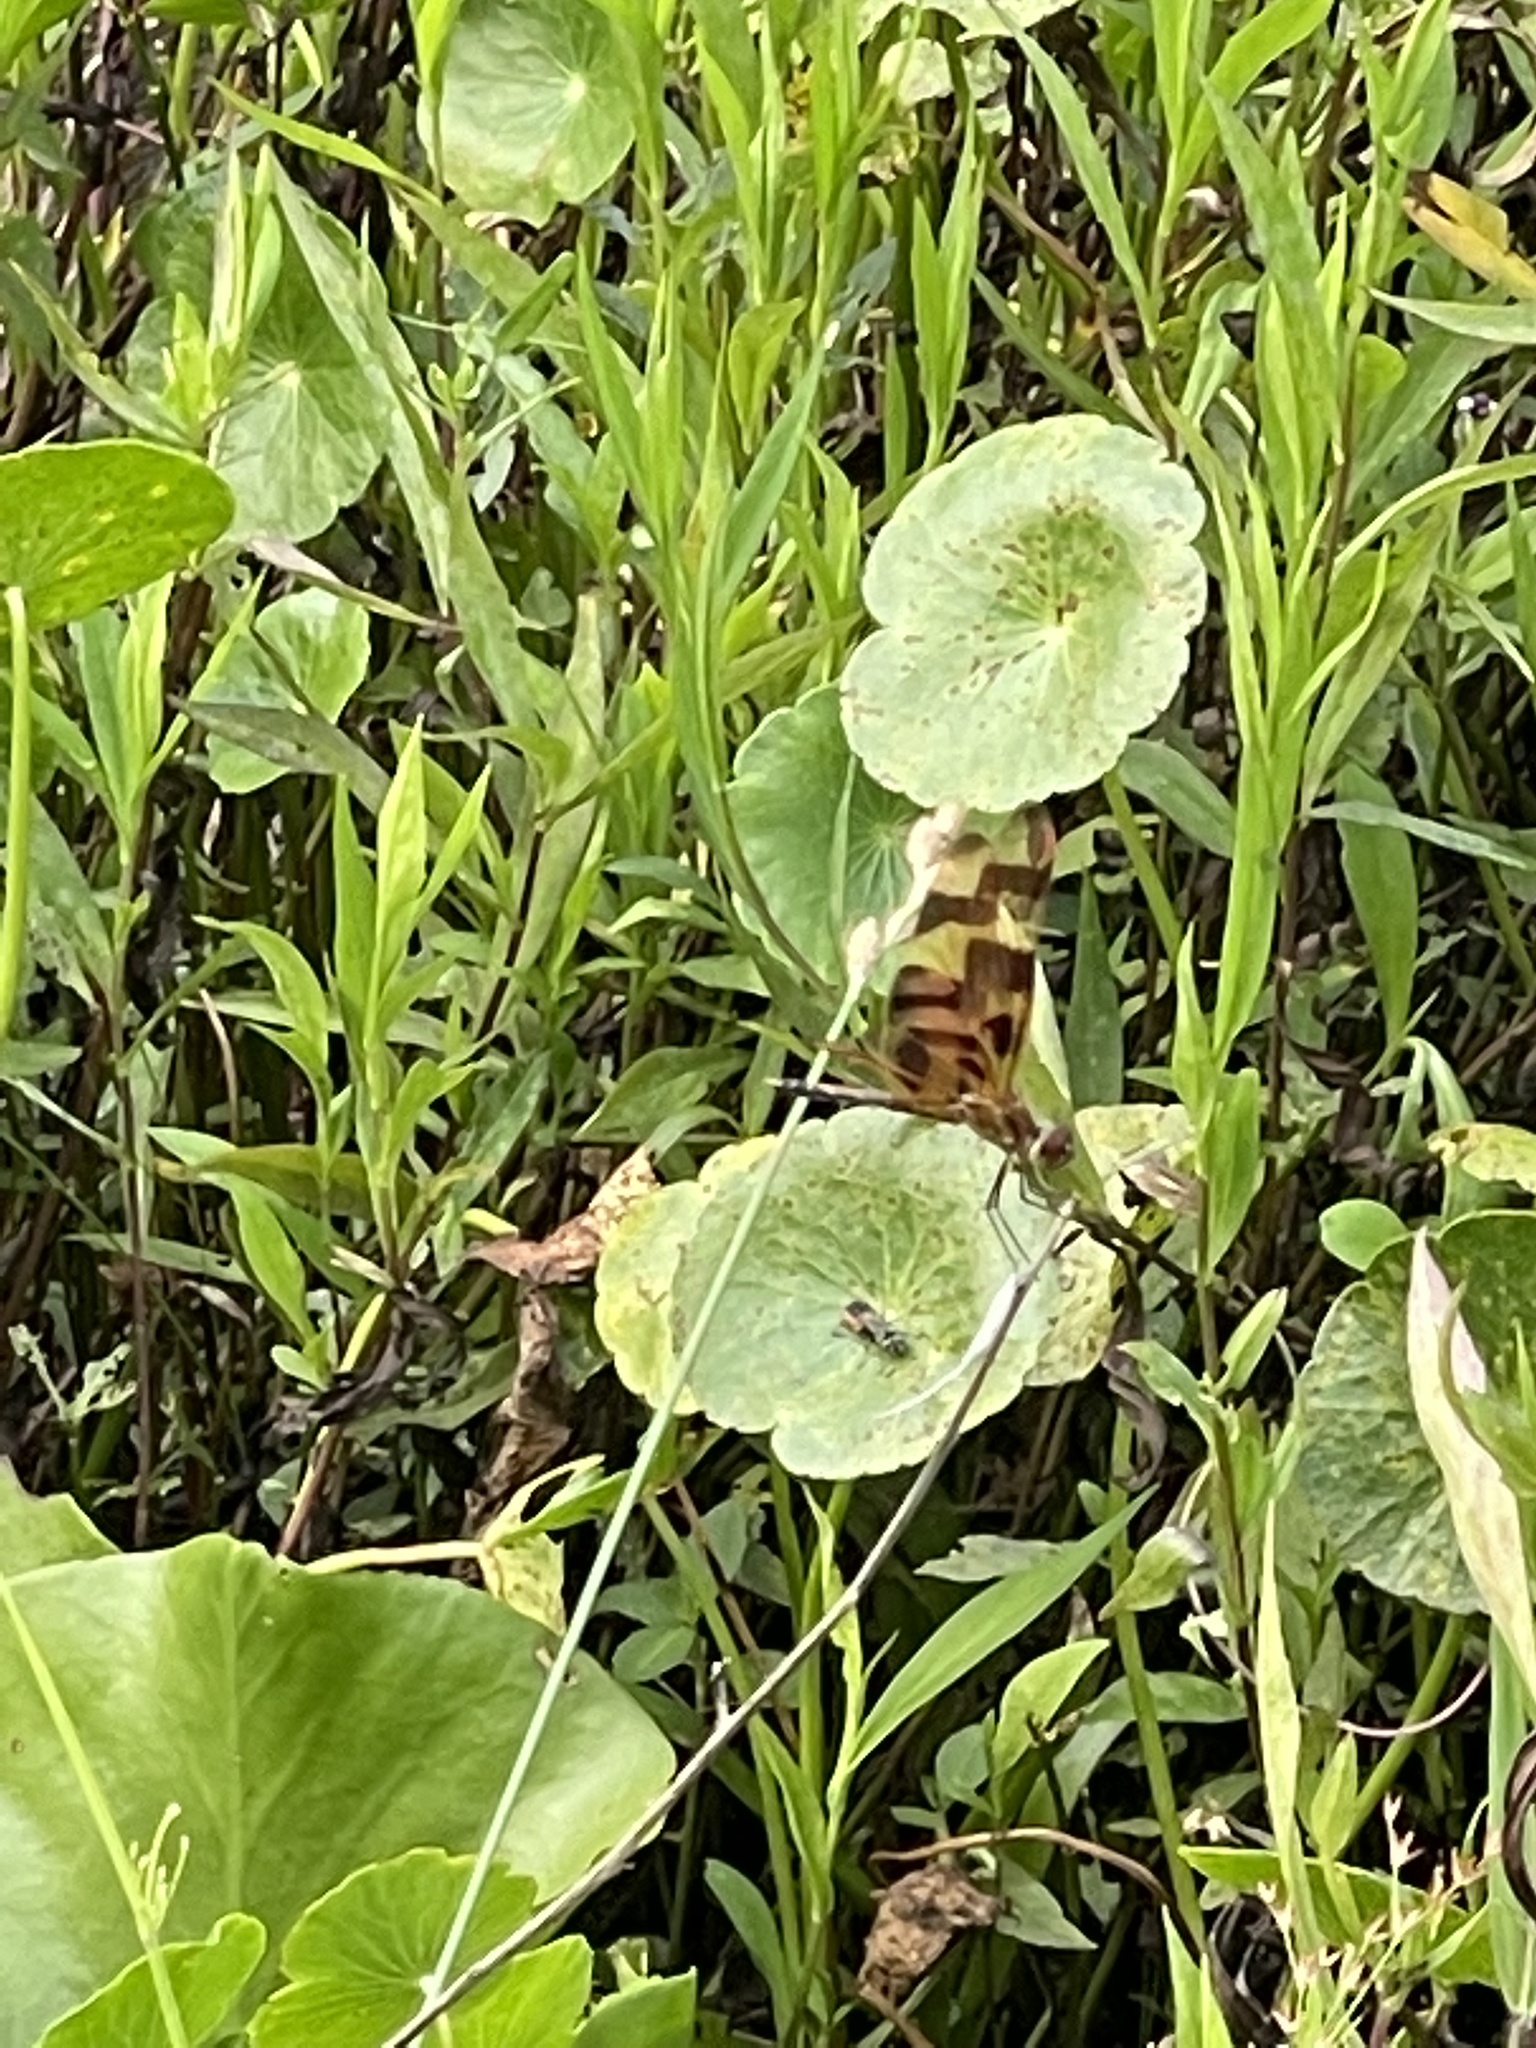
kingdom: Animalia
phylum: Arthropoda
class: Insecta
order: Odonata
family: Libellulidae
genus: Celithemis
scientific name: Celithemis eponina
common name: Halloween pennant
